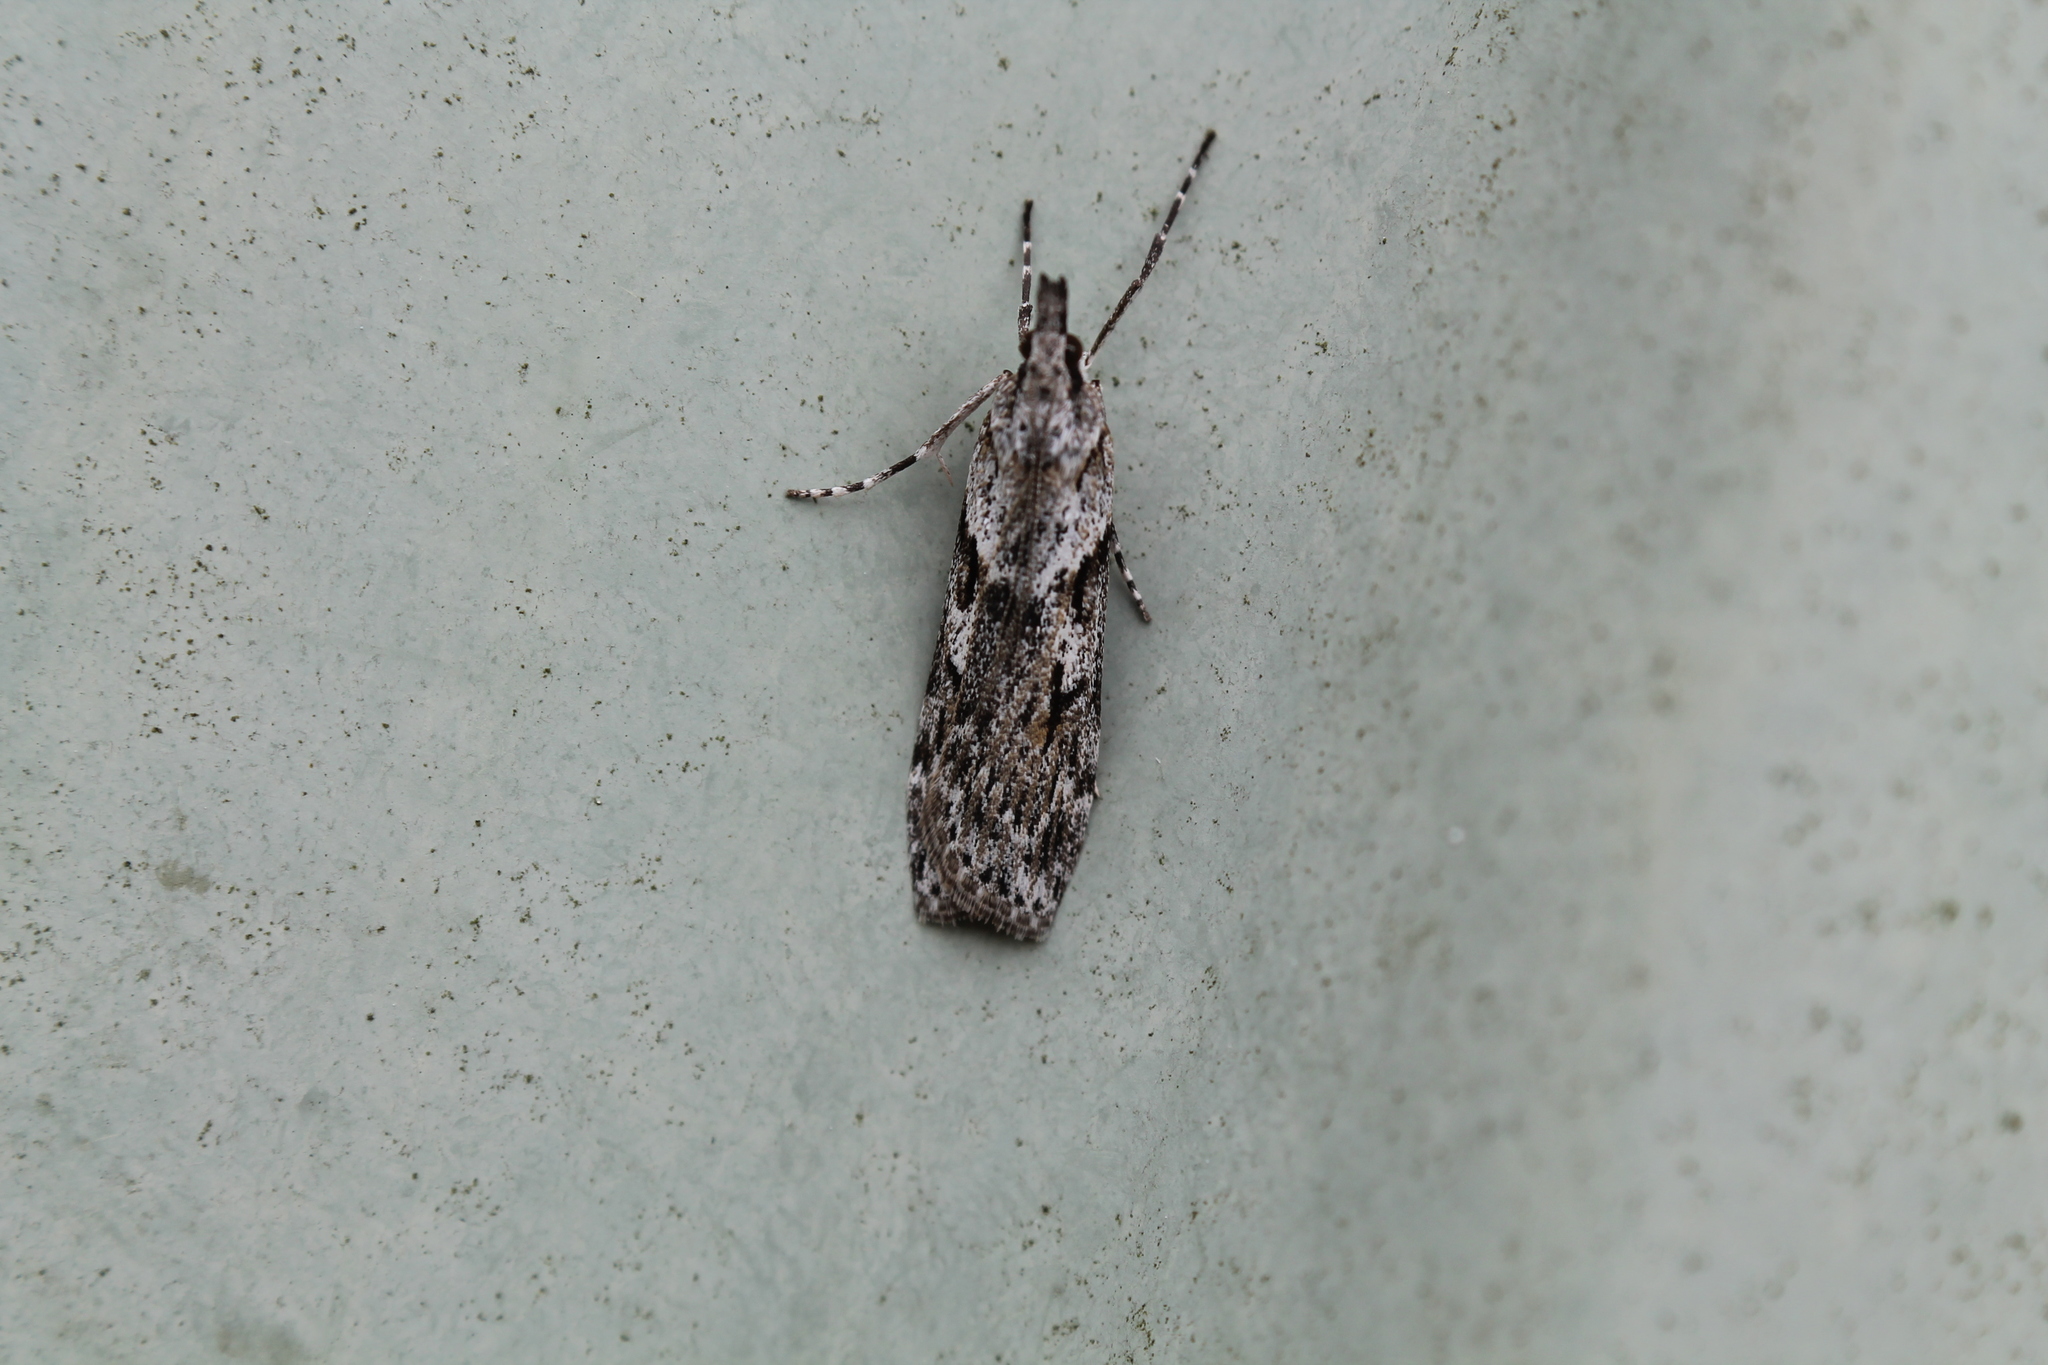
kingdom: Animalia
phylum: Arthropoda
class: Insecta
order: Lepidoptera
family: Crambidae
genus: Scoparia
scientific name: Scoparia halopis
